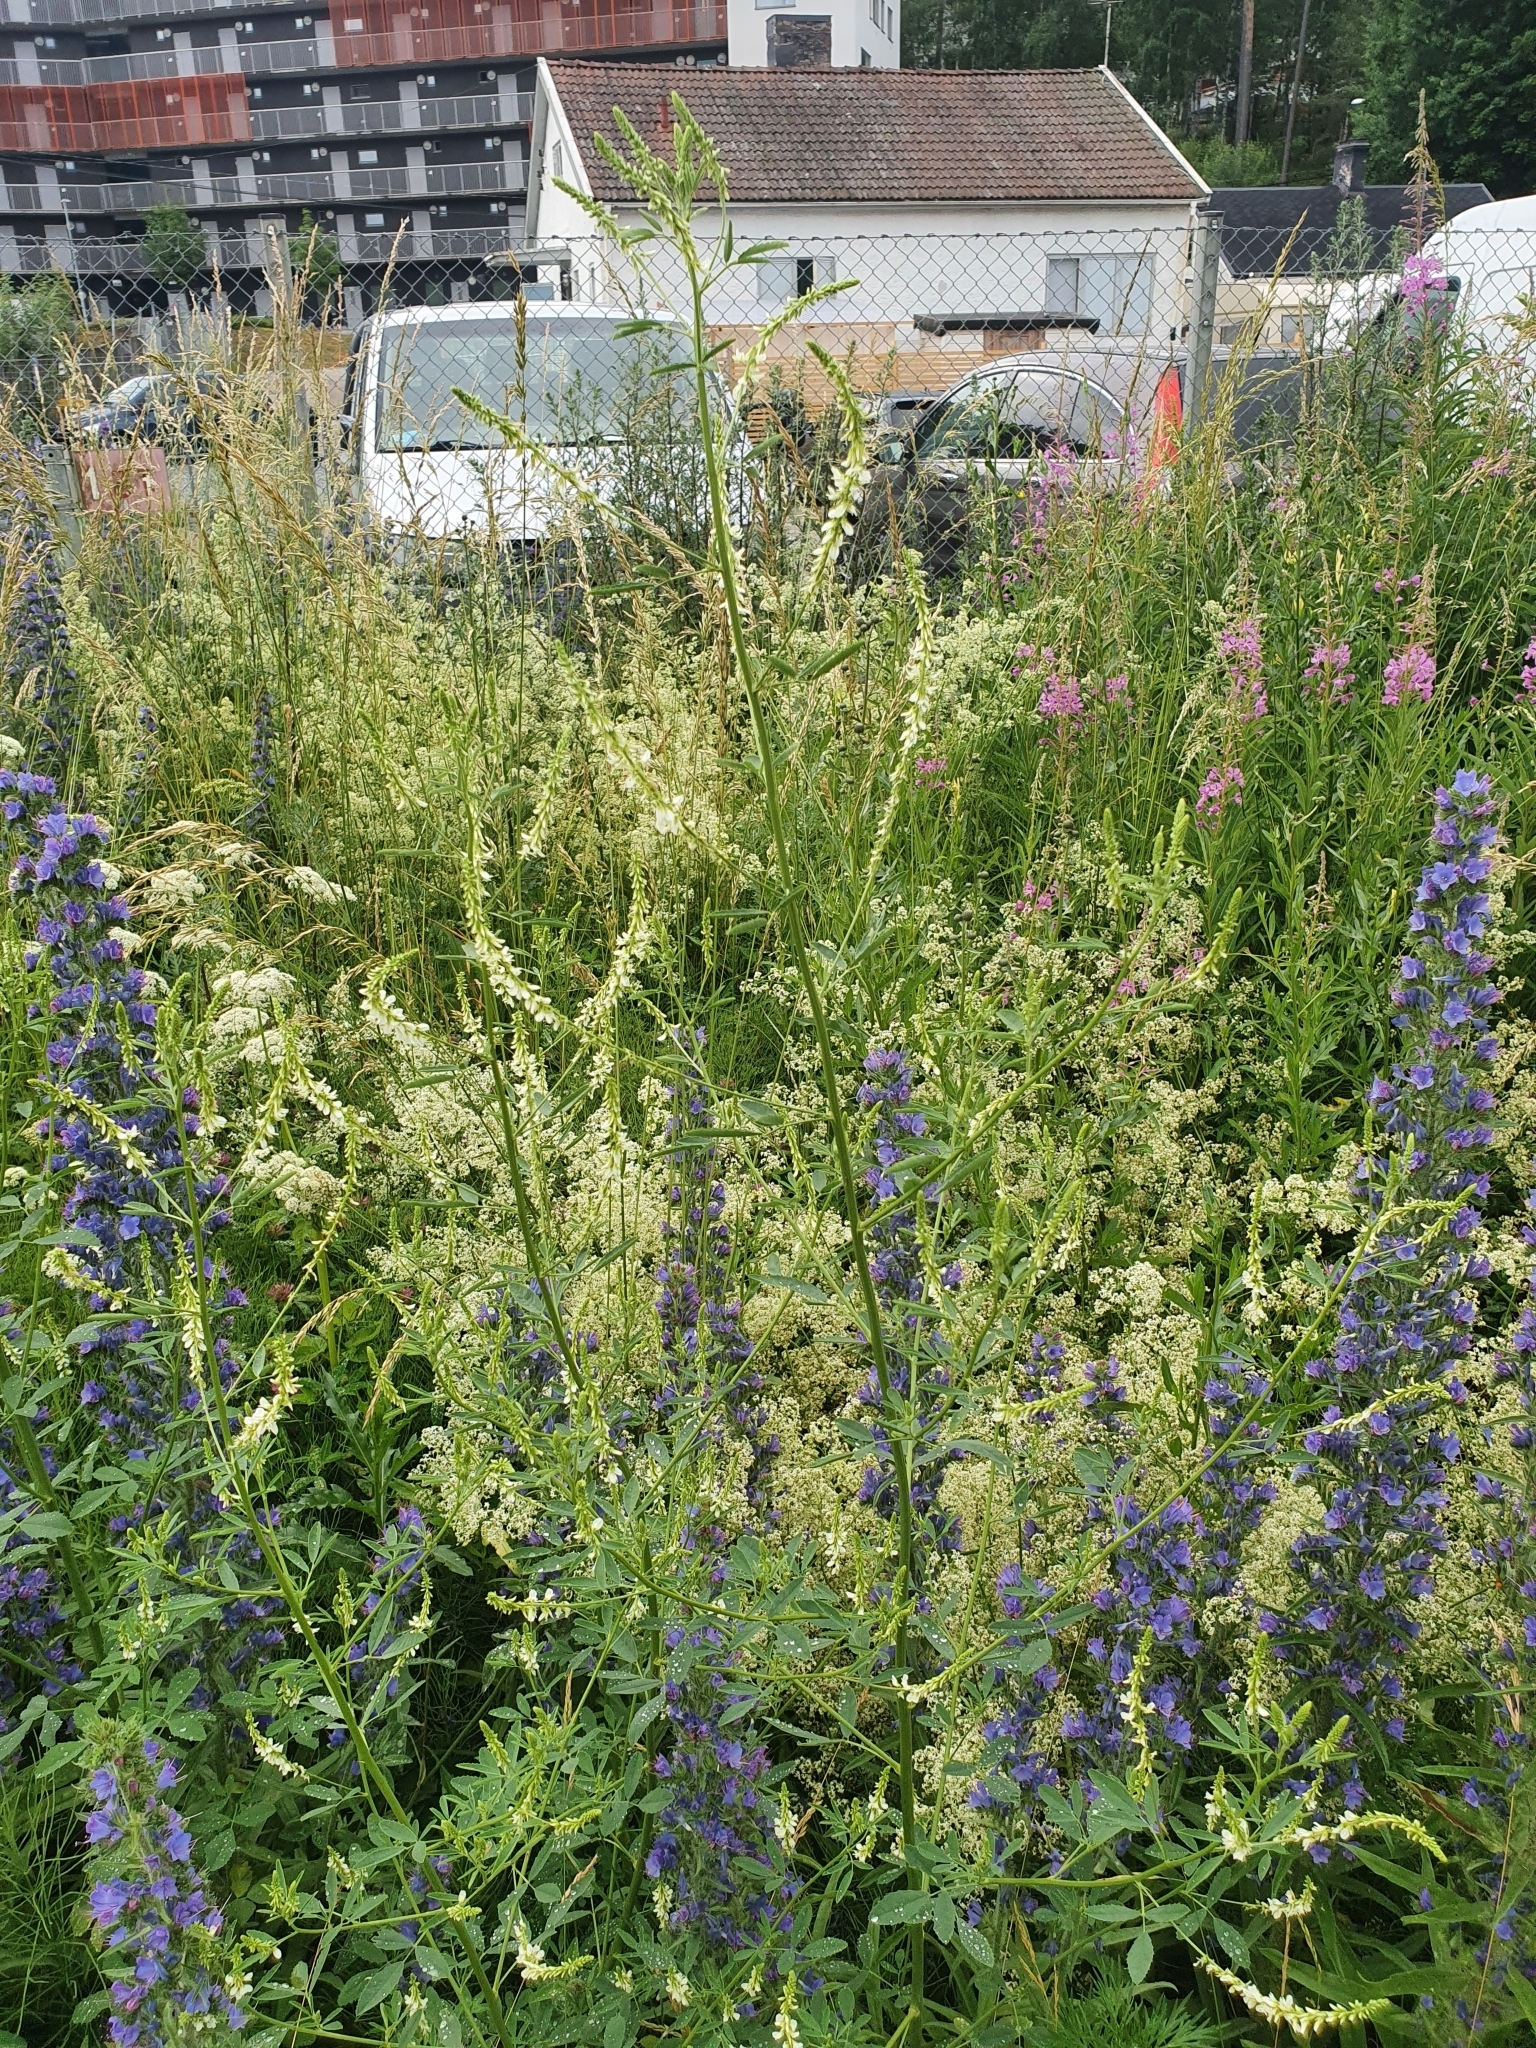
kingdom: Plantae
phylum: Tracheophyta
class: Magnoliopsida
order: Boraginales
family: Boraginaceae
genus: Echium
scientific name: Echium vulgare
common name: Common viper's bugloss
